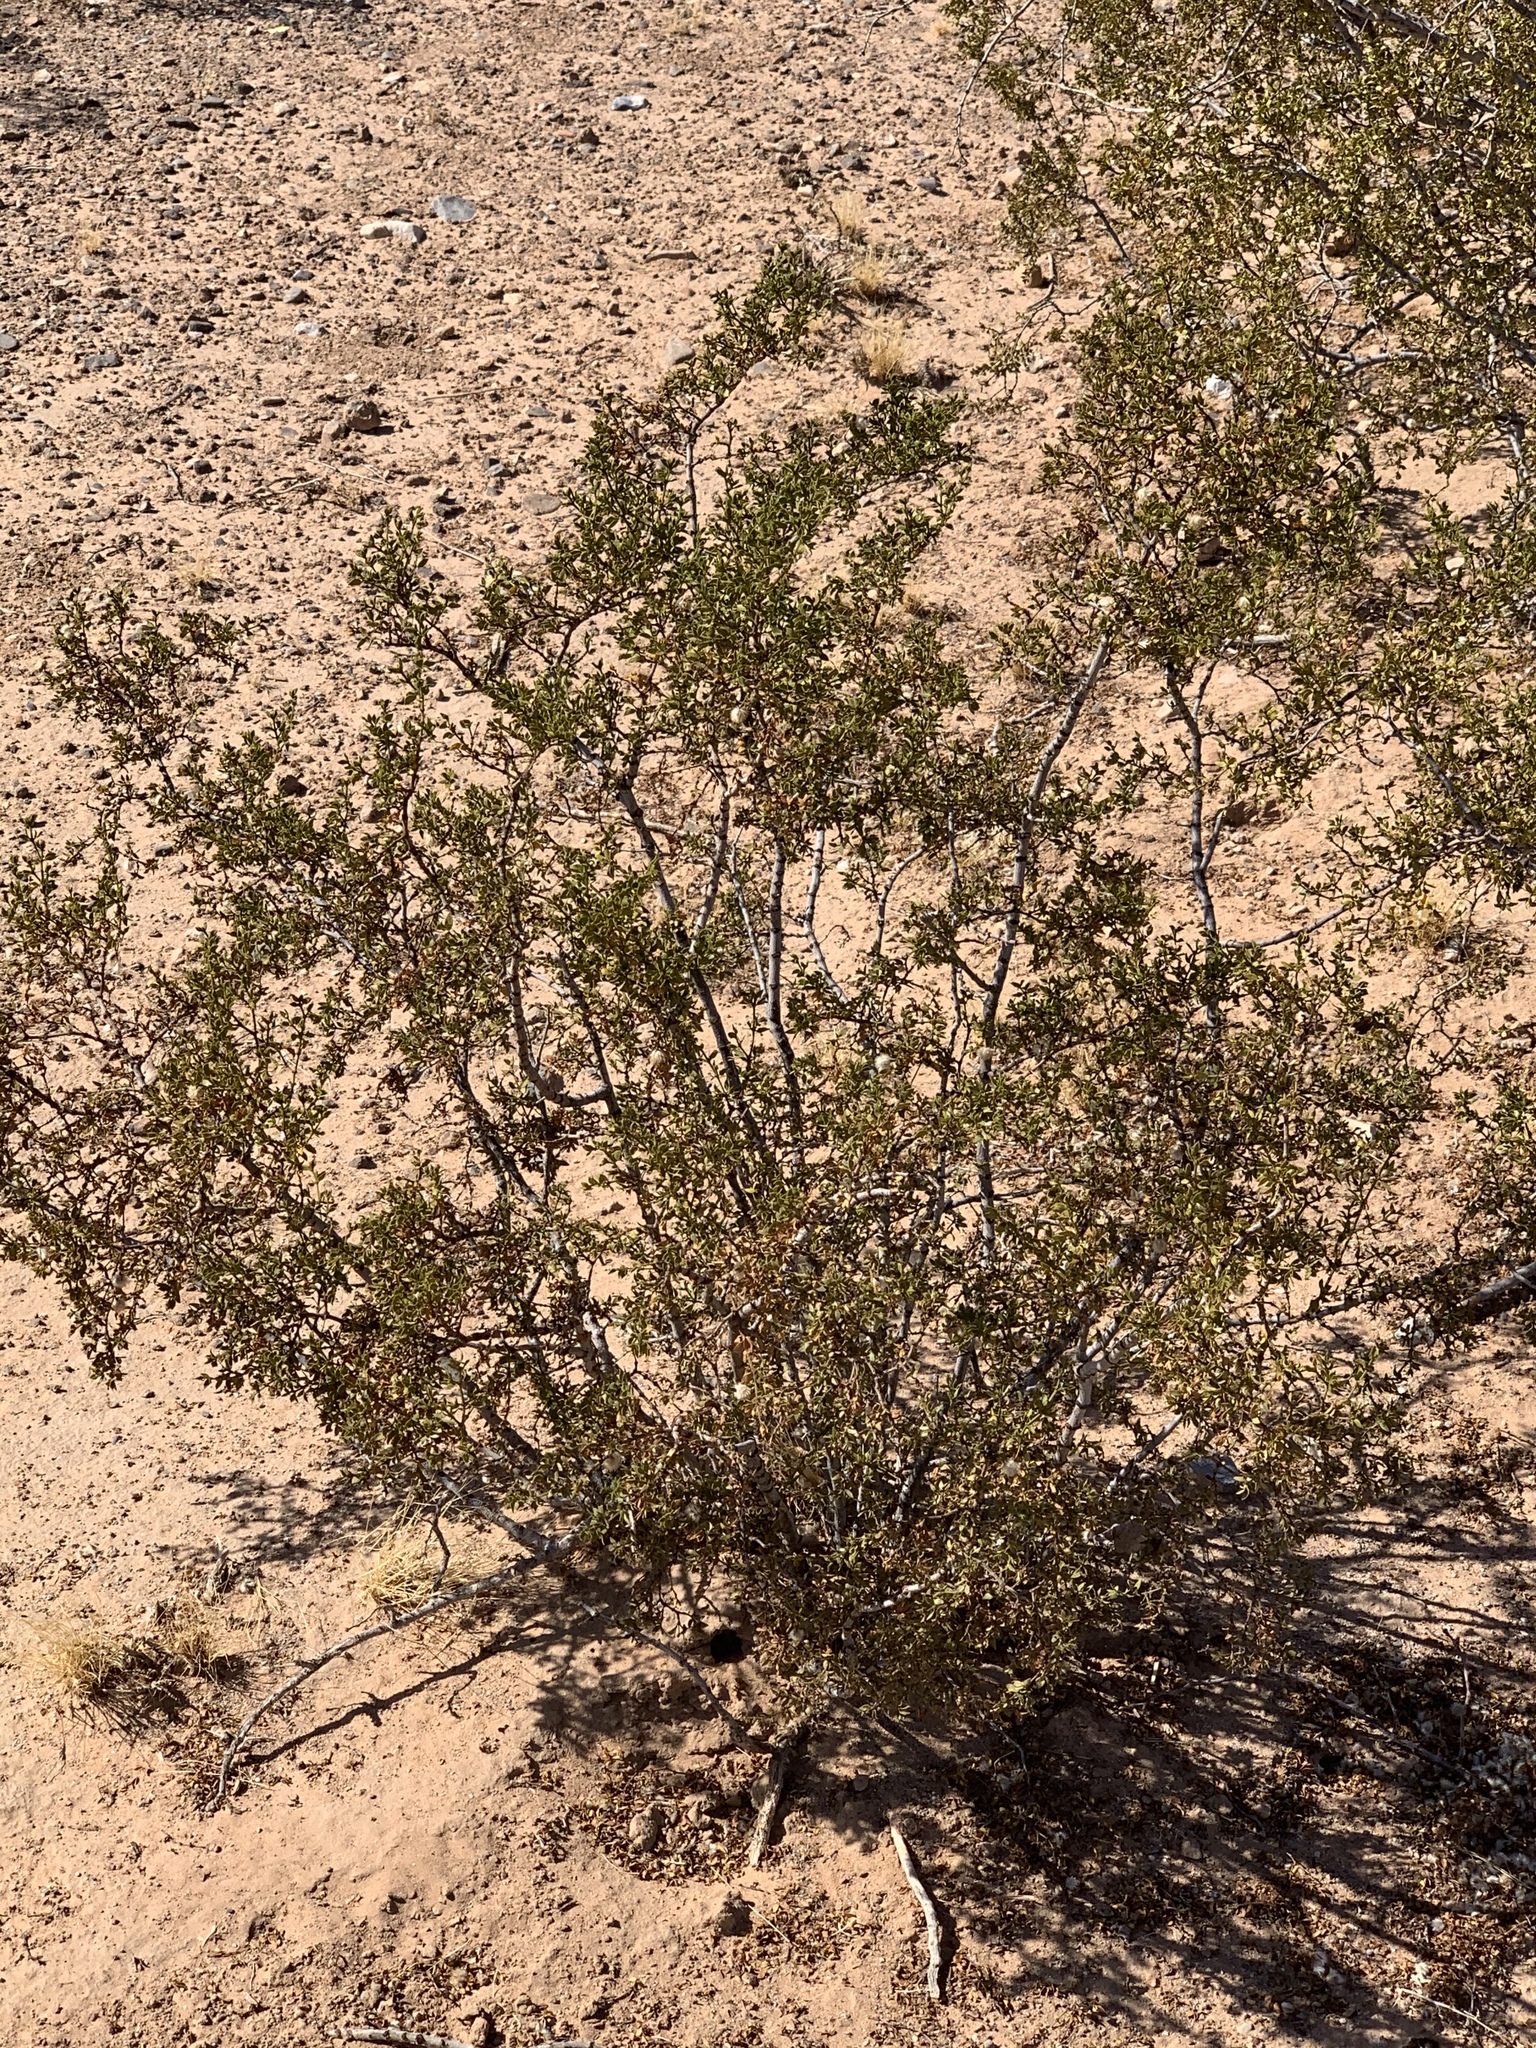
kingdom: Plantae
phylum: Tracheophyta
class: Magnoliopsida
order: Zygophyllales
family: Zygophyllaceae
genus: Larrea
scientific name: Larrea tridentata
